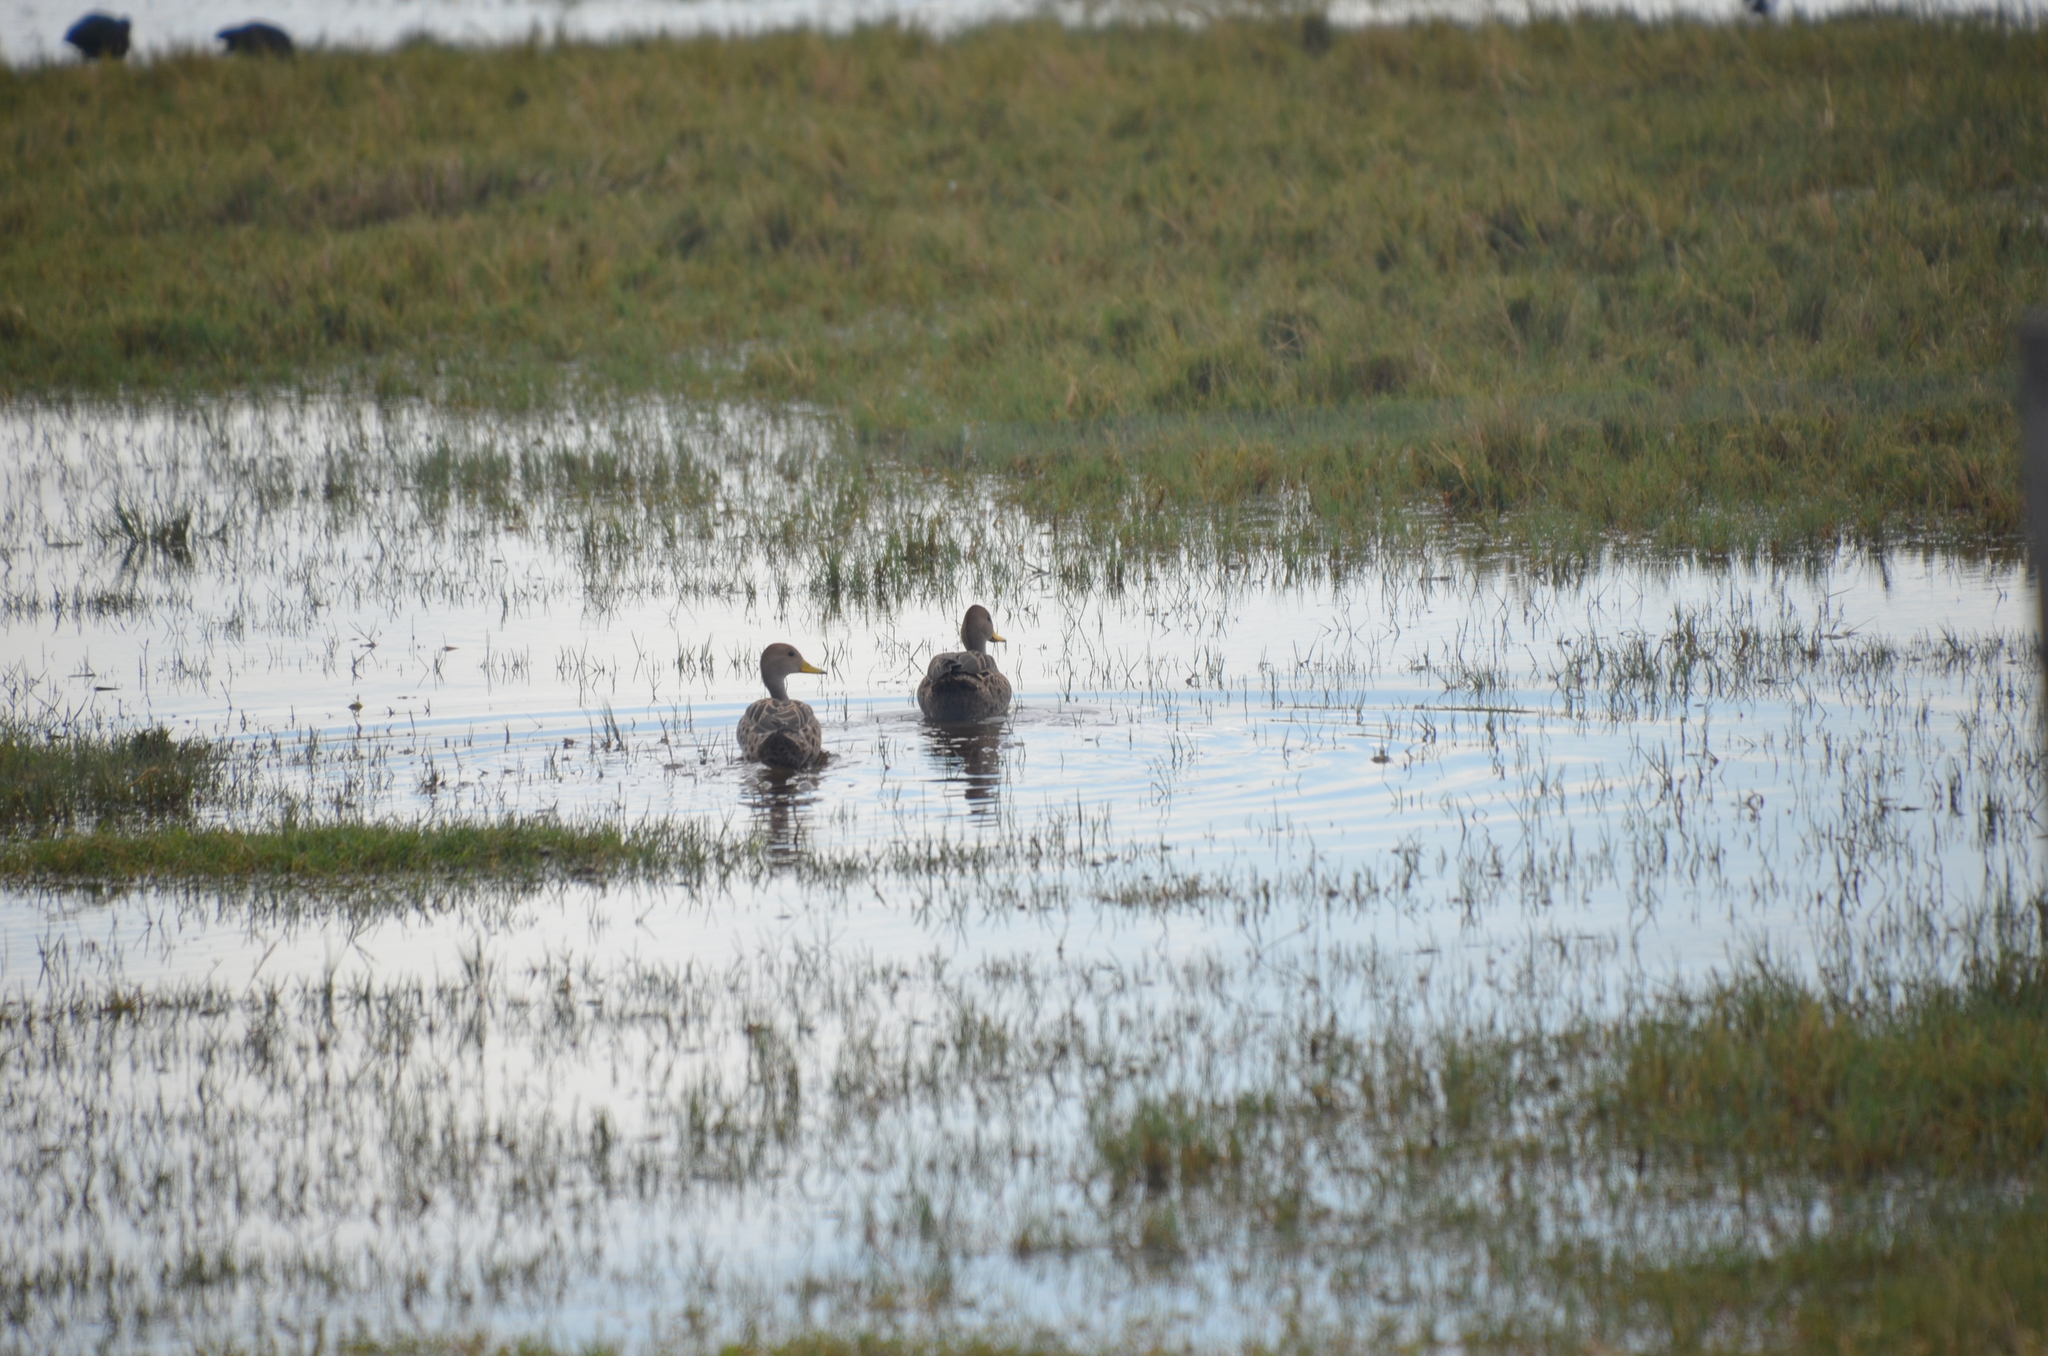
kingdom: Animalia
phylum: Chordata
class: Aves
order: Anseriformes
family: Anatidae
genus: Anas
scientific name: Anas georgica
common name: Yellow-billed pintail
